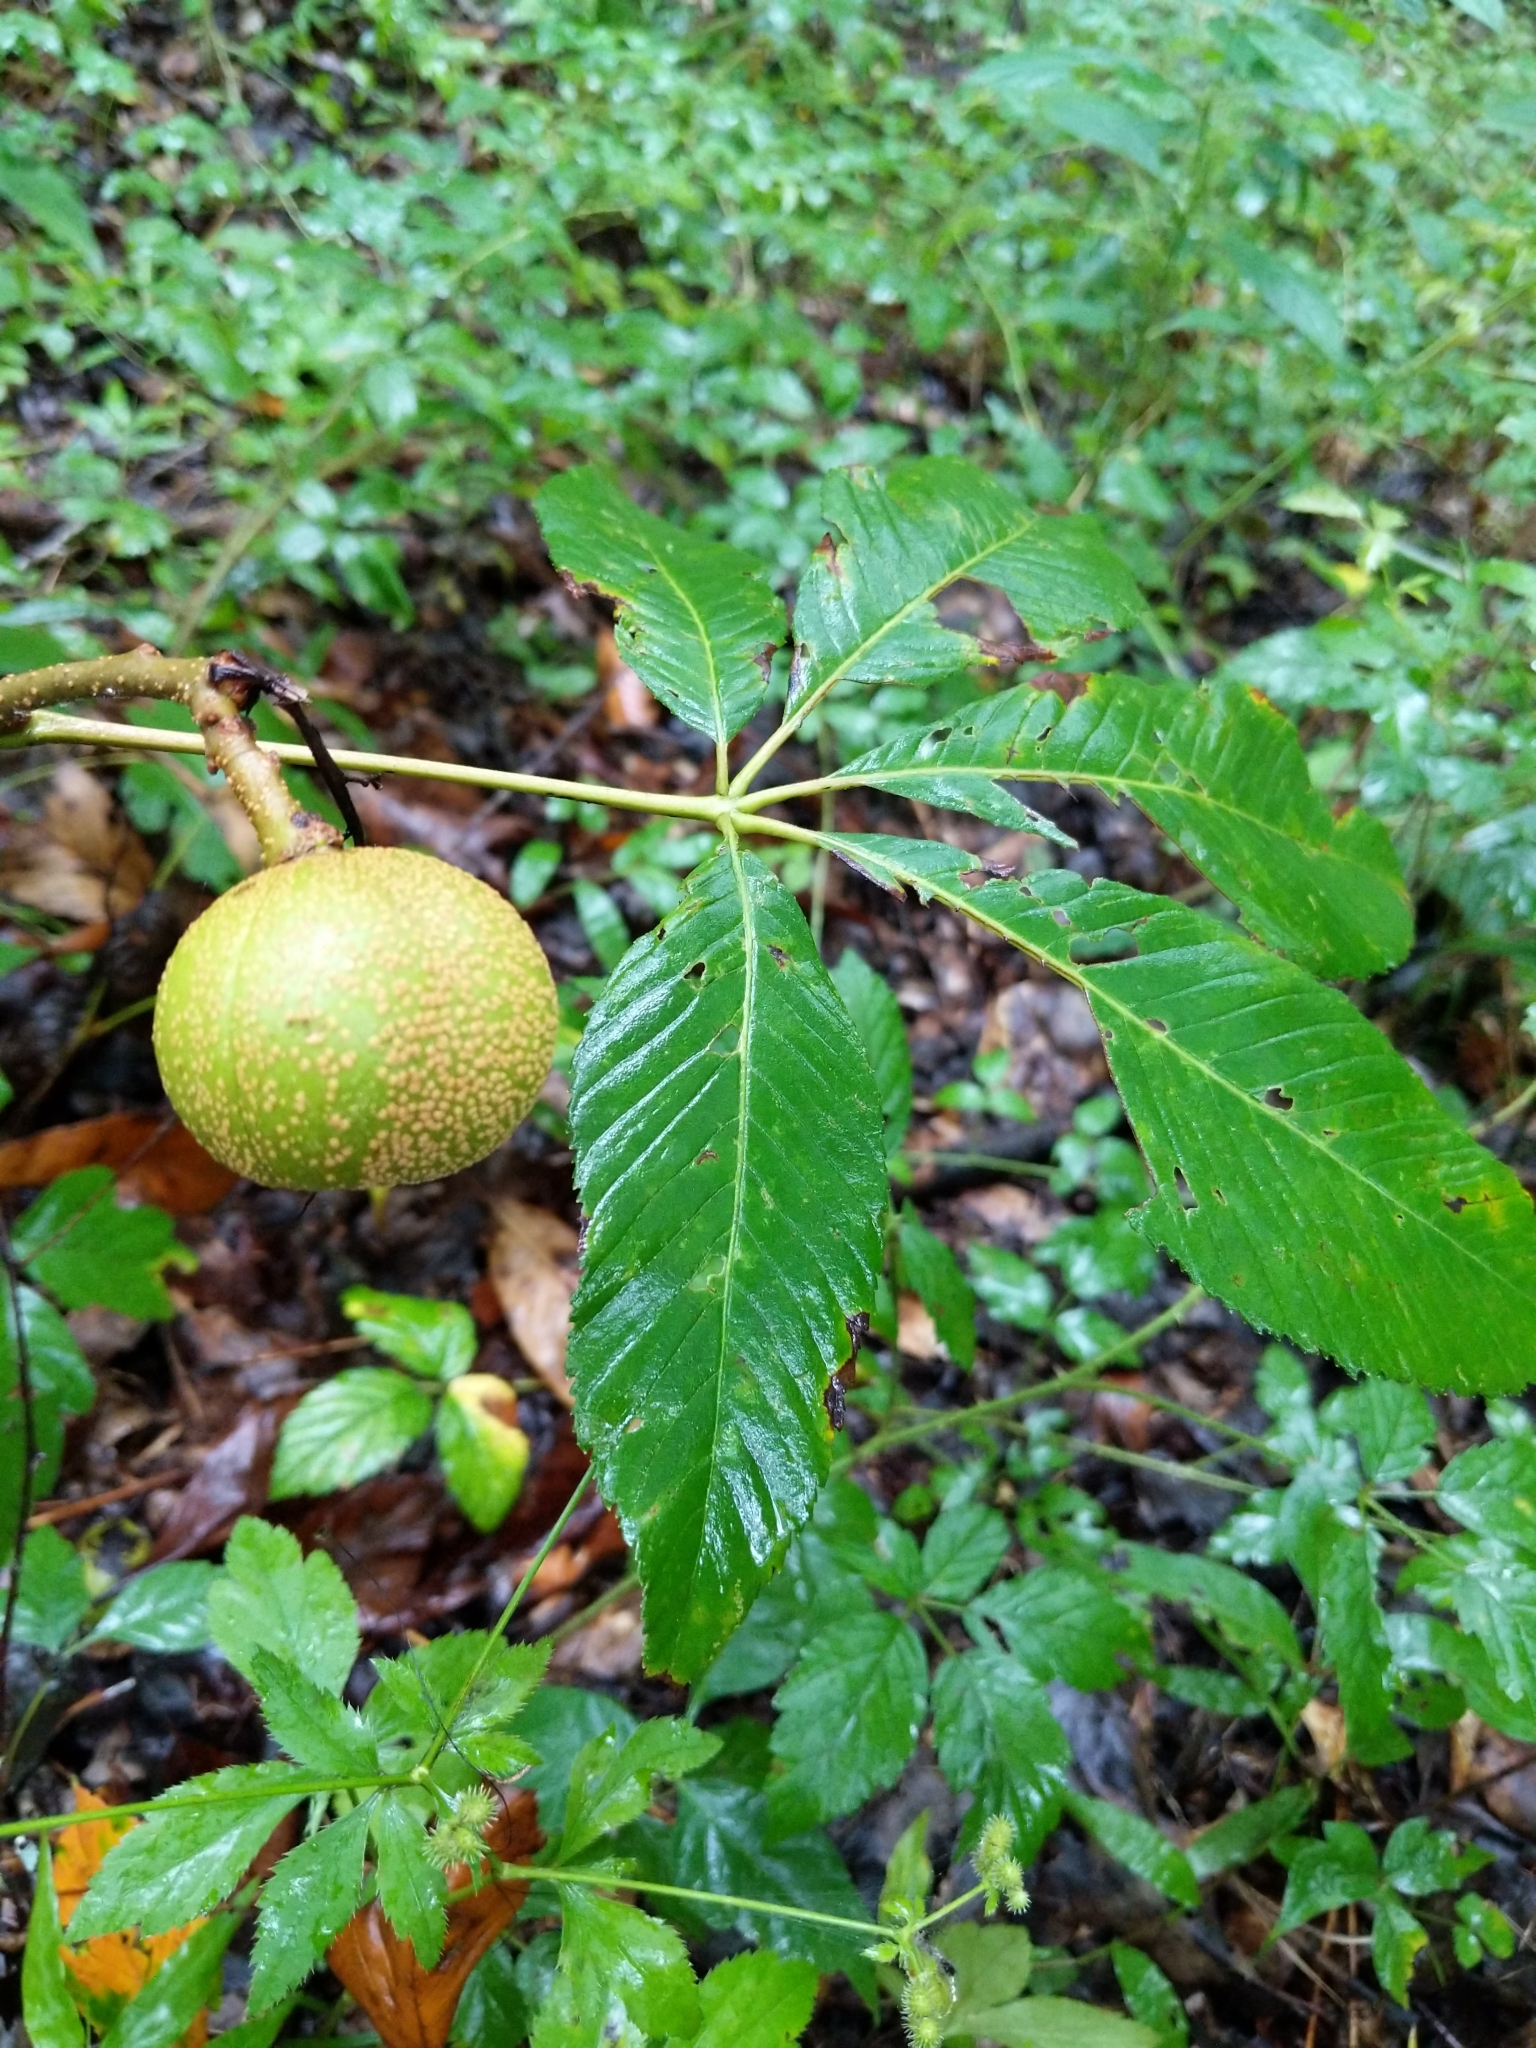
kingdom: Plantae
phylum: Tracheophyta
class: Magnoliopsida
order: Sapindales
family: Sapindaceae
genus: Aesculus
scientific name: Aesculus pavia
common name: Red buckeye
